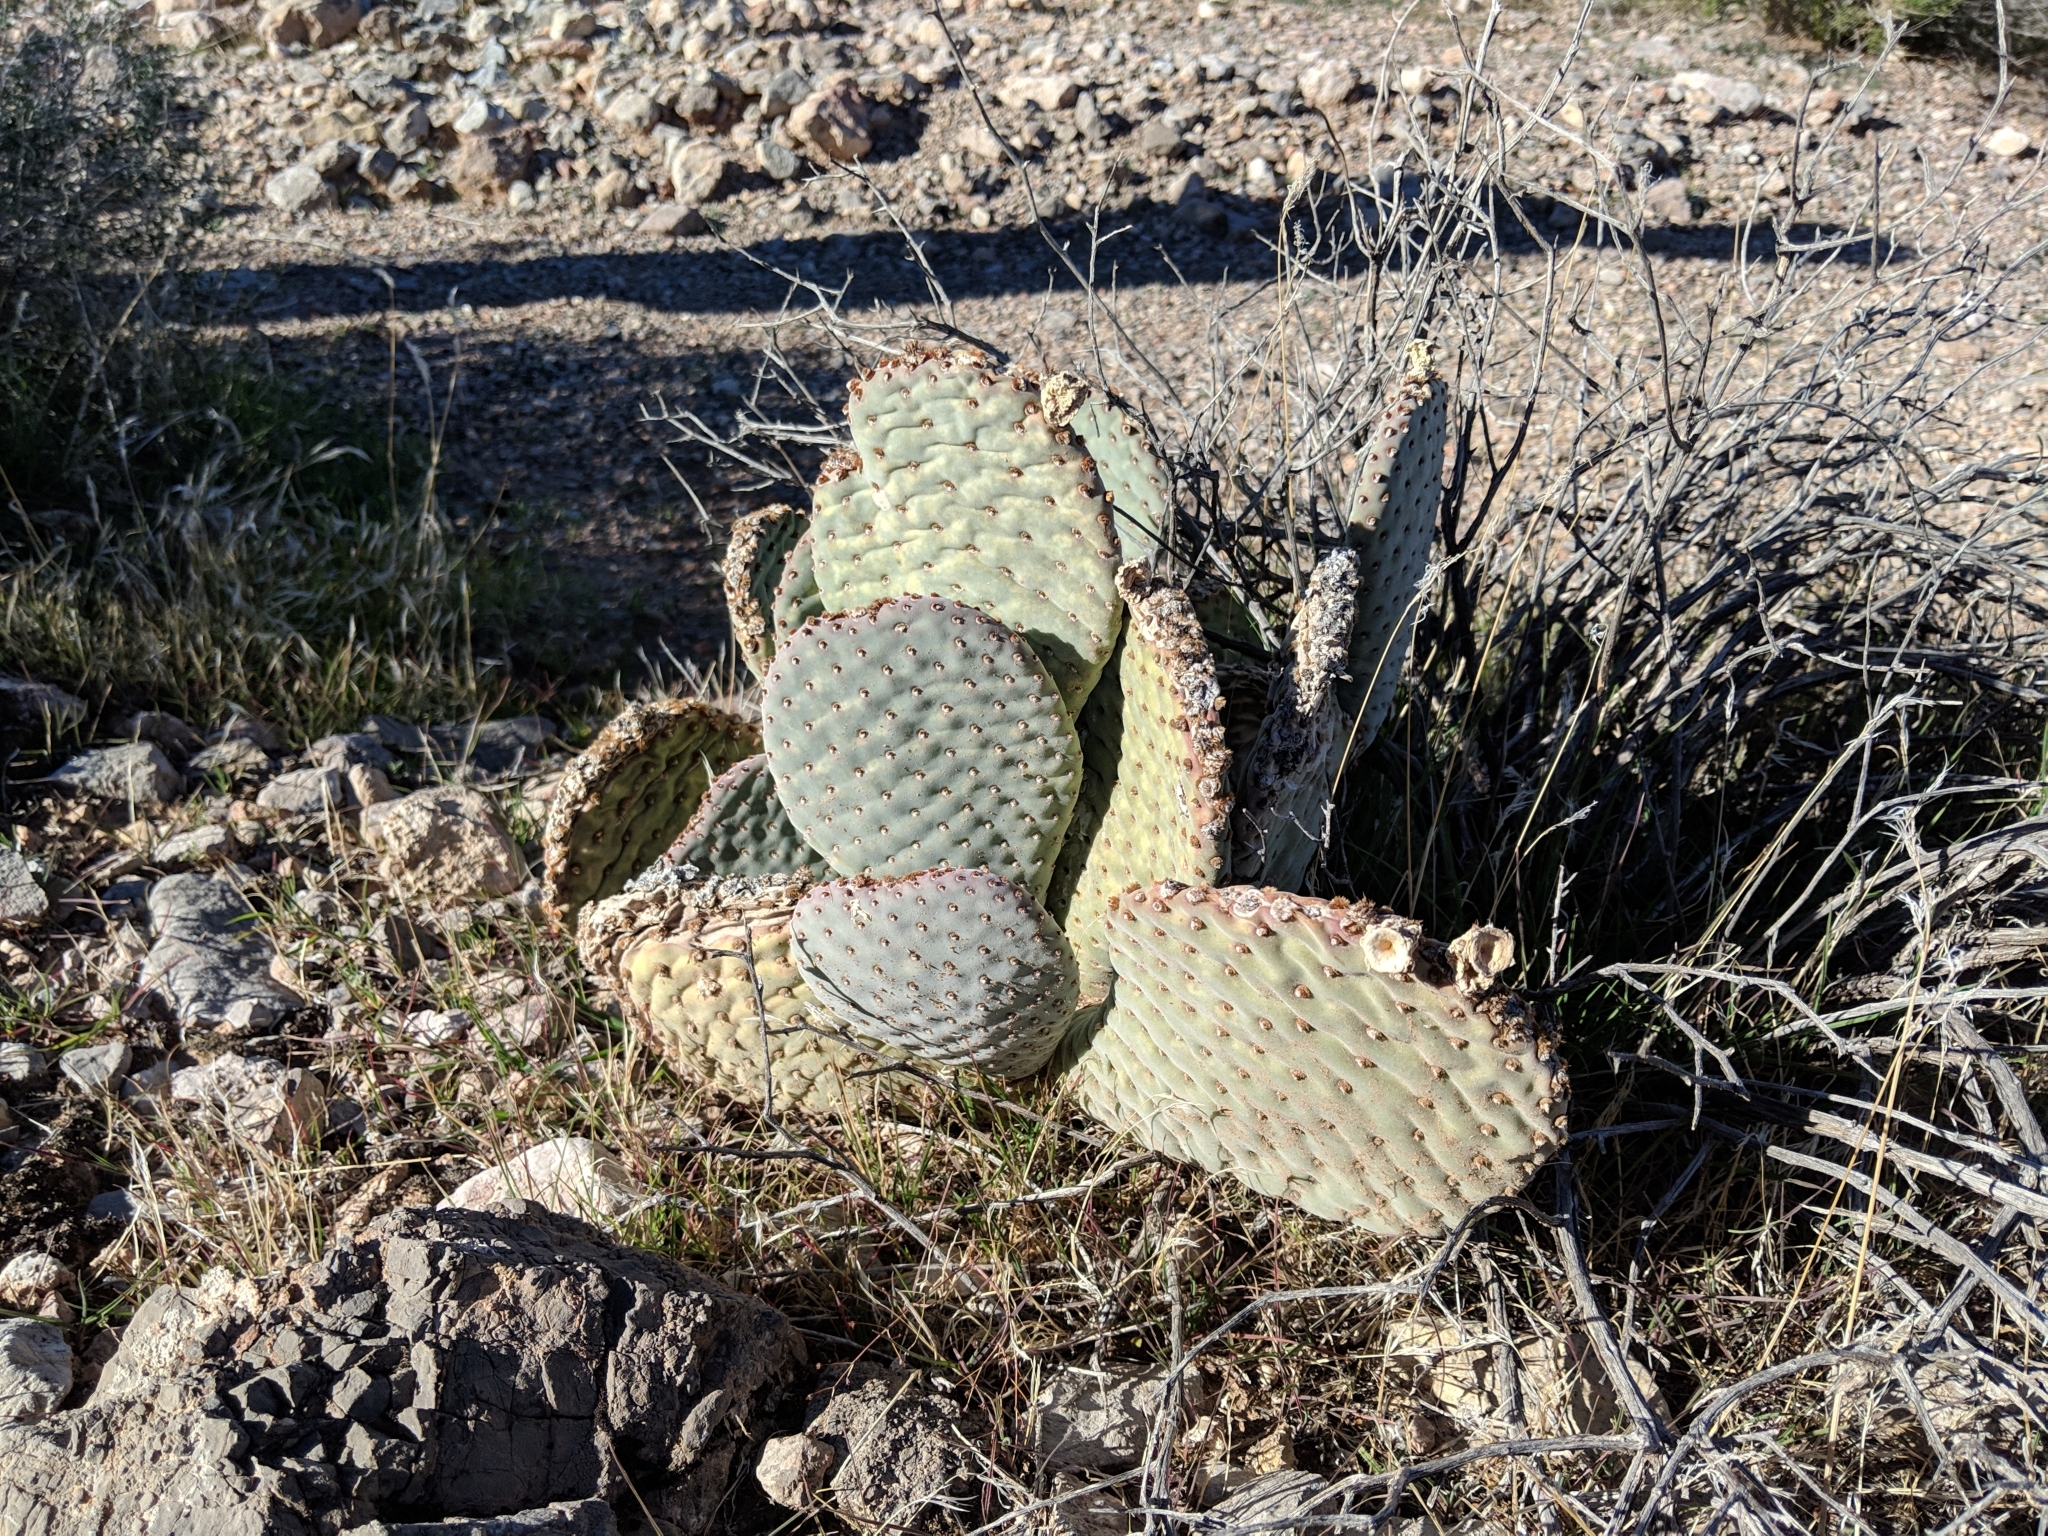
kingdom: Plantae
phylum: Tracheophyta
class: Magnoliopsida
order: Caryophyllales
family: Cactaceae
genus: Opuntia
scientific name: Opuntia basilaris
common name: Beavertail prickly-pear
